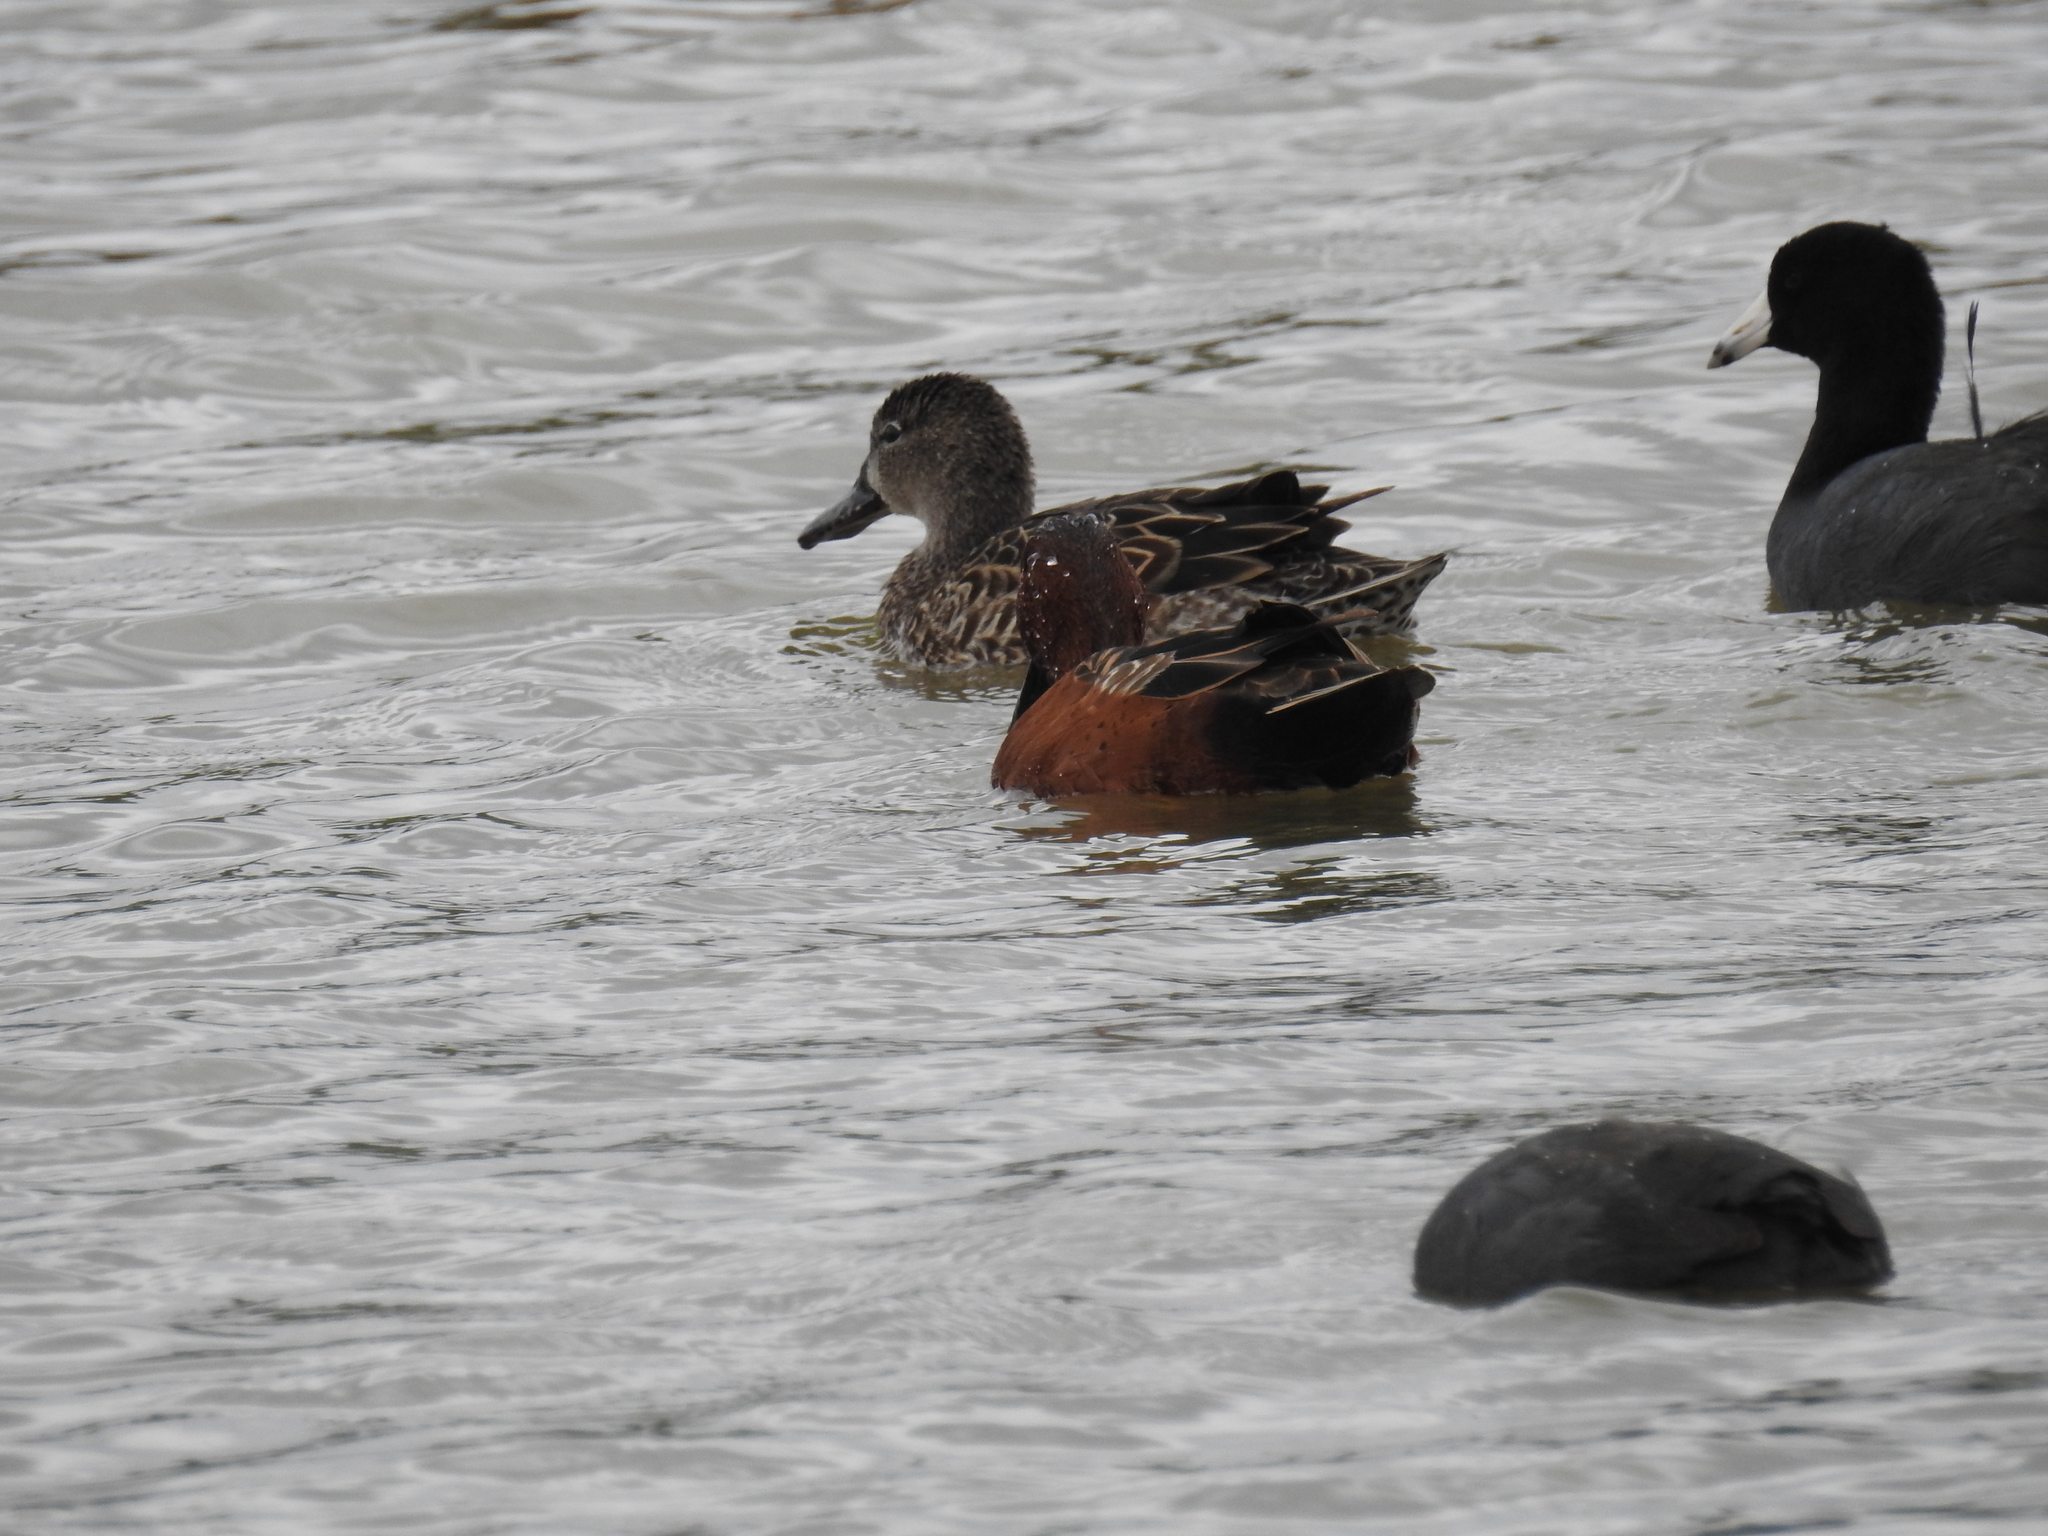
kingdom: Animalia
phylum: Chordata
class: Aves
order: Anseriformes
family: Anatidae
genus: Spatula
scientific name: Spatula cyanoptera
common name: Cinnamon teal
